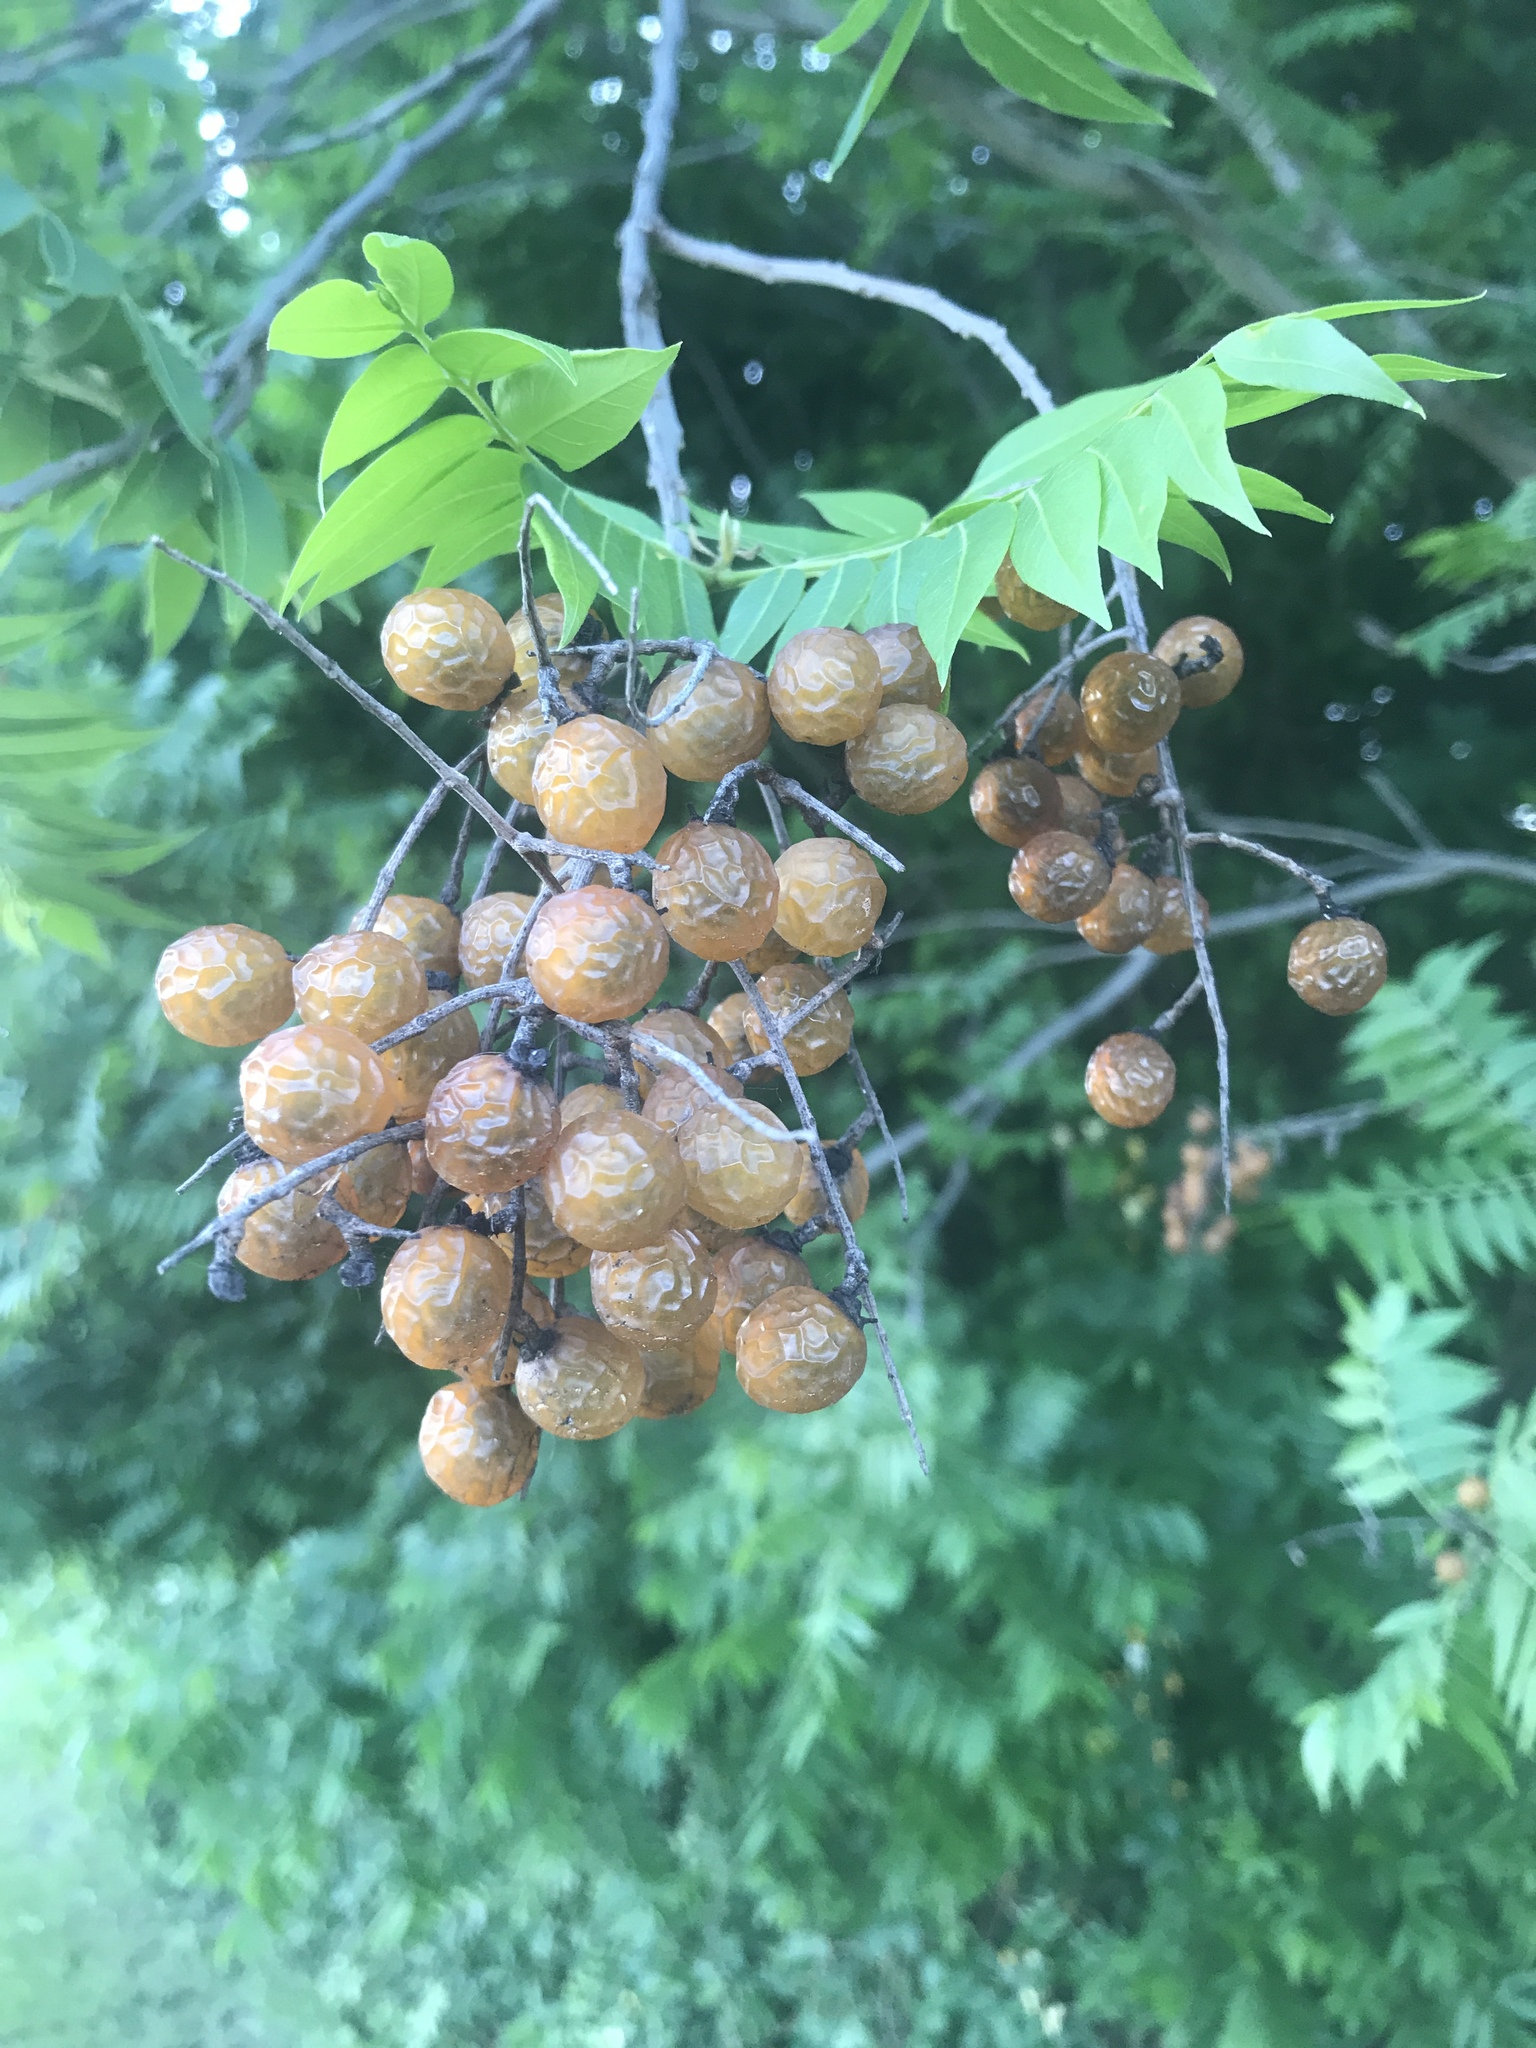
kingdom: Plantae
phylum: Tracheophyta
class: Magnoliopsida
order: Sapindales
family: Sapindaceae
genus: Sapindus
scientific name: Sapindus drummondii
